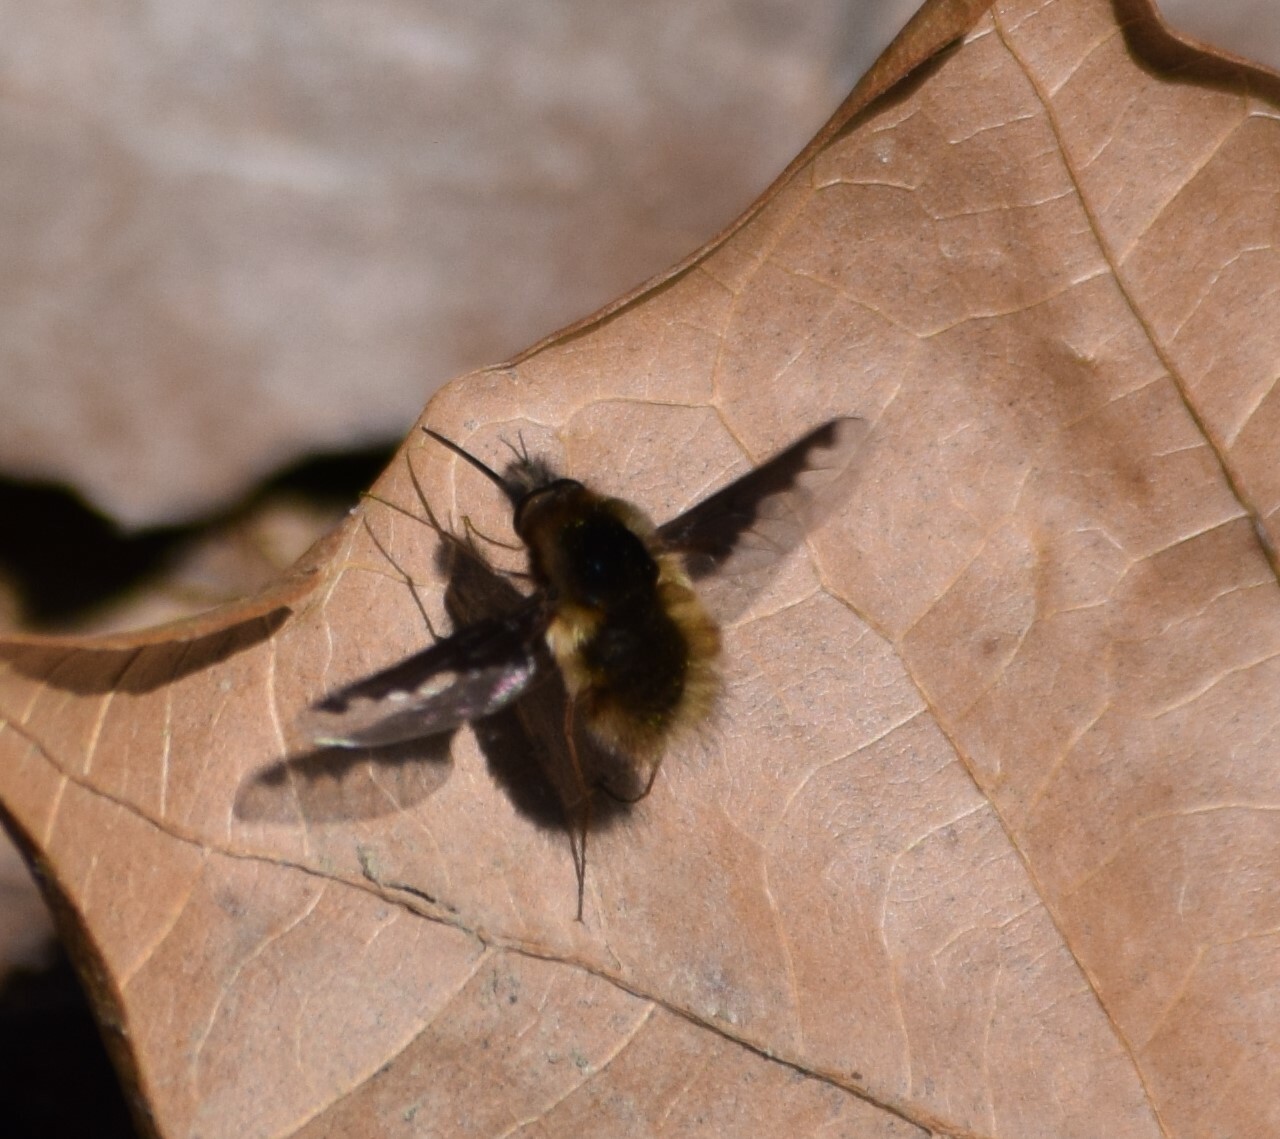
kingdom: Animalia
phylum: Arthropoda
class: Insecta
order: Diptera
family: Bombyliidae
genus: Bombylius
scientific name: Bombylius major
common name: Bee fly
